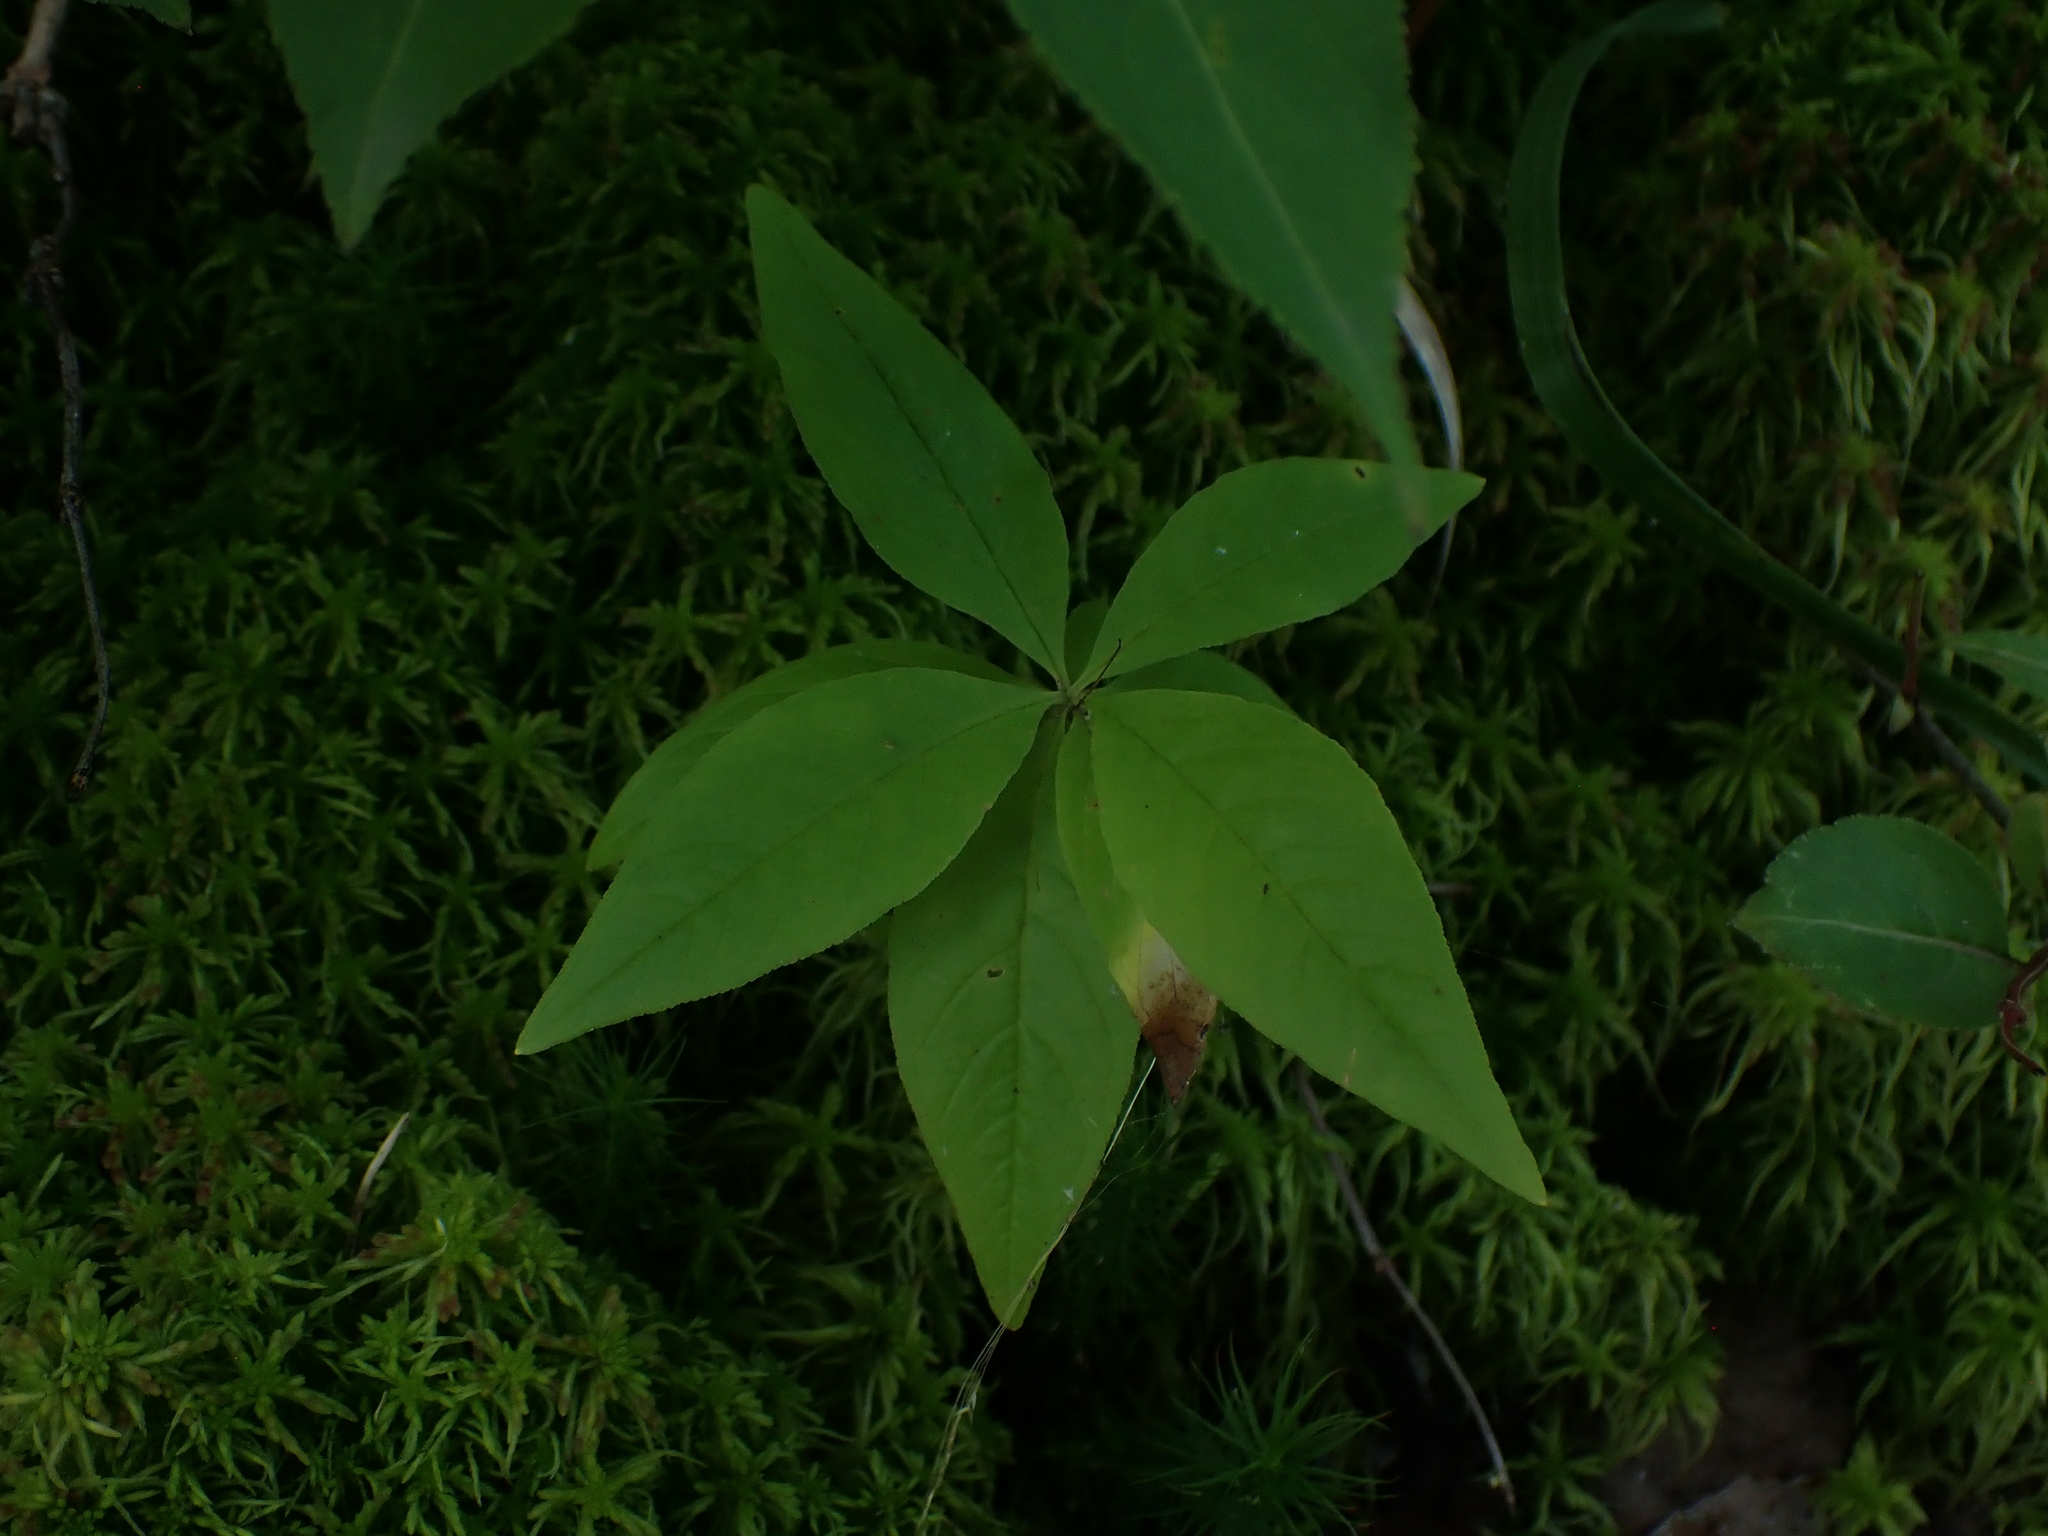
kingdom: Plantae
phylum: Tracheophyta
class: Magnoliopsida
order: Ericales
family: Primulaceae
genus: Lysimachia
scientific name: Lysimachia borealis
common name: American starflower
